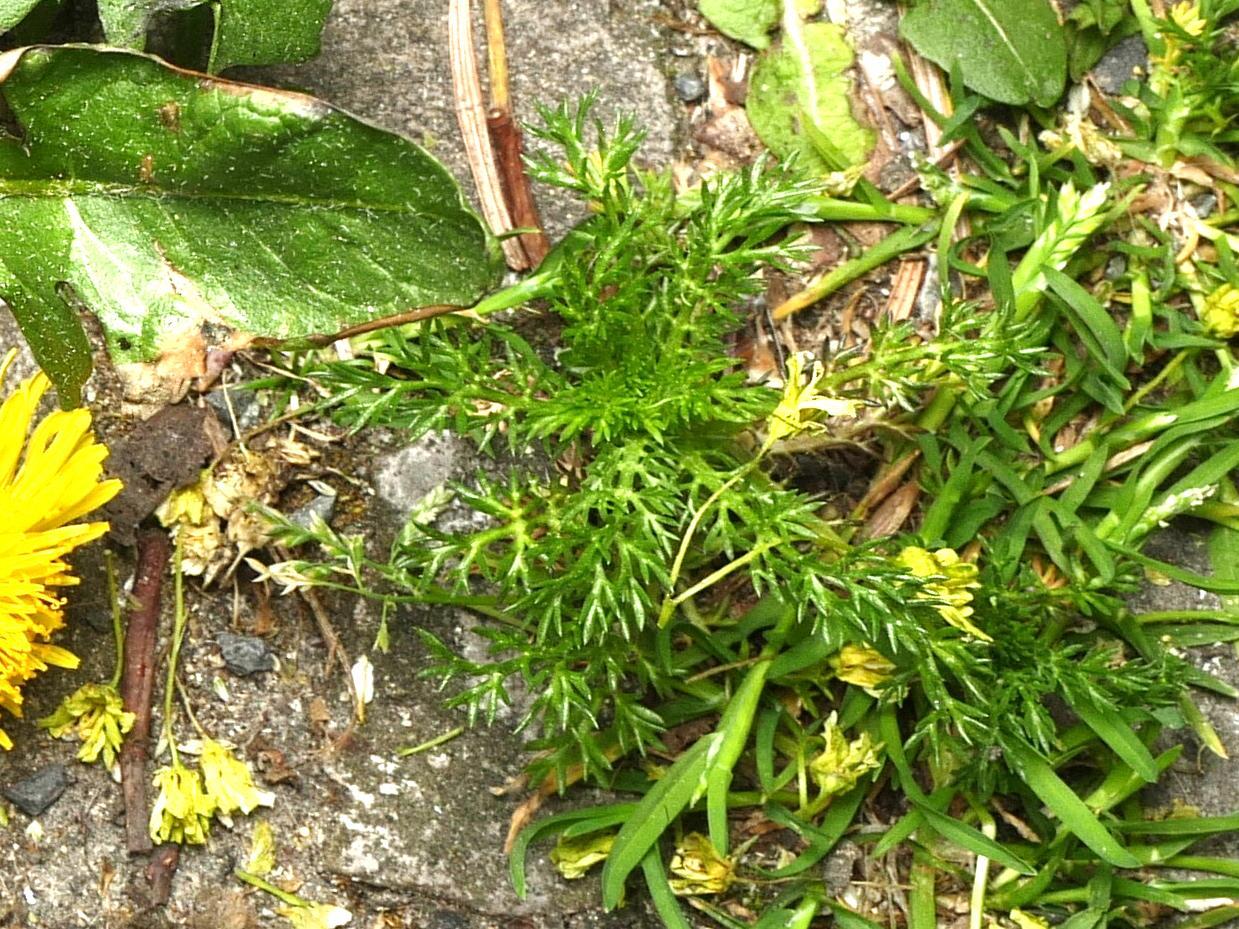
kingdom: Plantae
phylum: Tracheophyta
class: Magnoliopsida
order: Asterales
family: Asteraceae
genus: Matricaria
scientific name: Matricaria discoidea
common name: Disc mayweed
